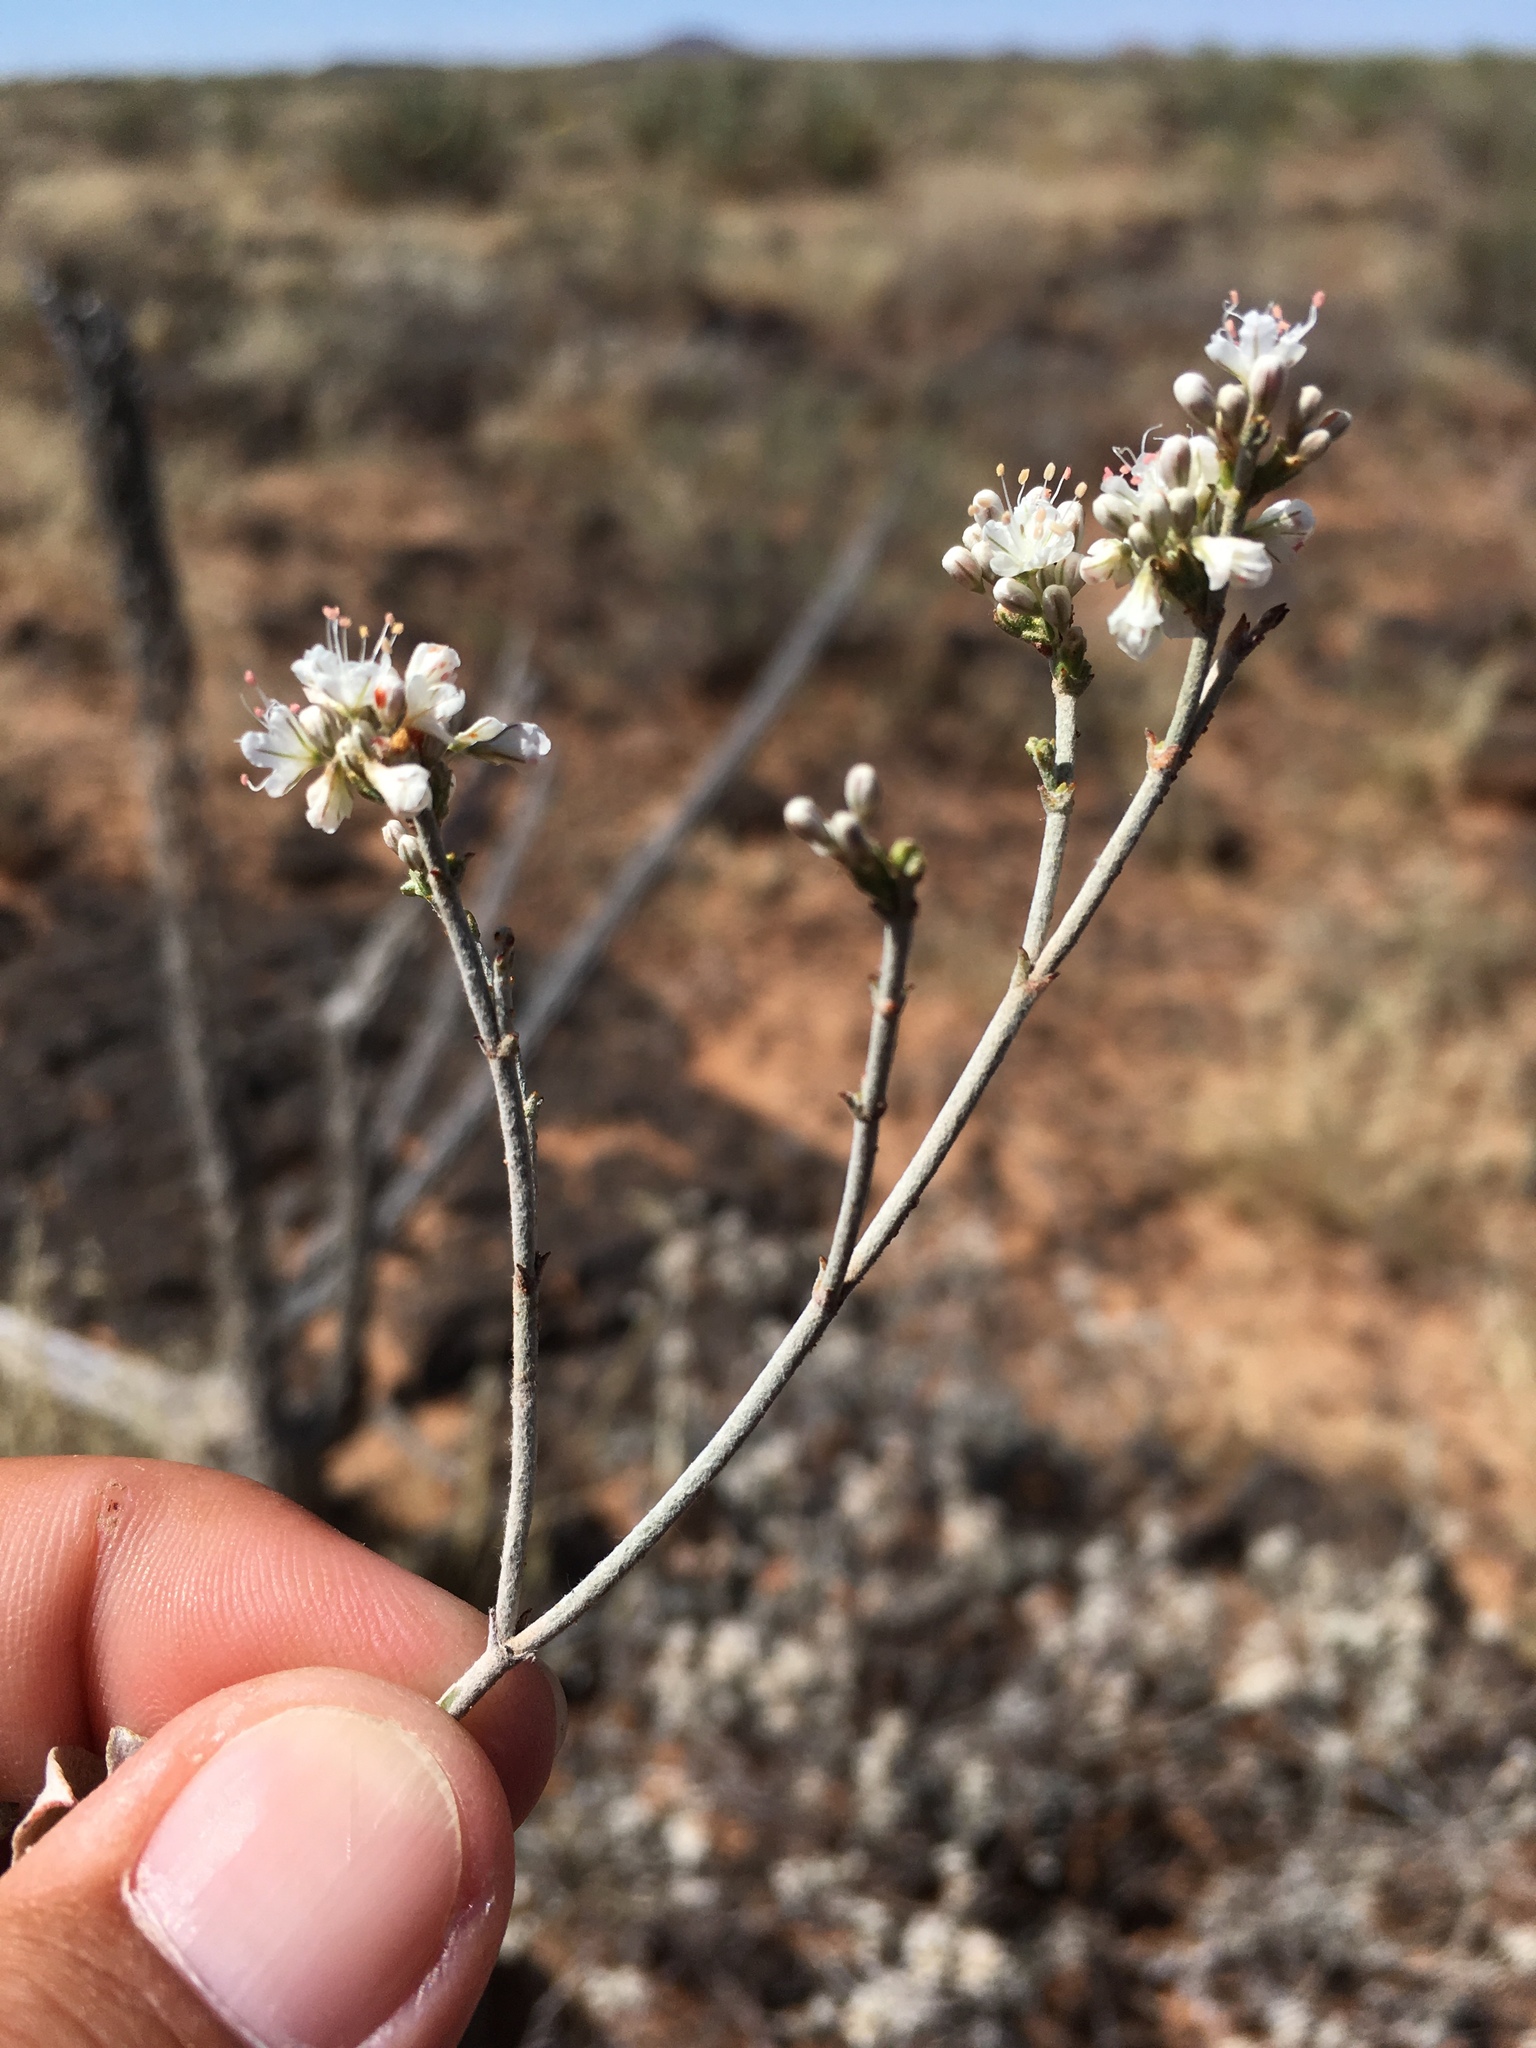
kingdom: Plantae
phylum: Tracheophyta
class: Magnoliopsida
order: Caryophyllales
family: Polygonaceae
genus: Eriogonum
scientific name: Eriogonum wrightii
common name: Bastard-sage
